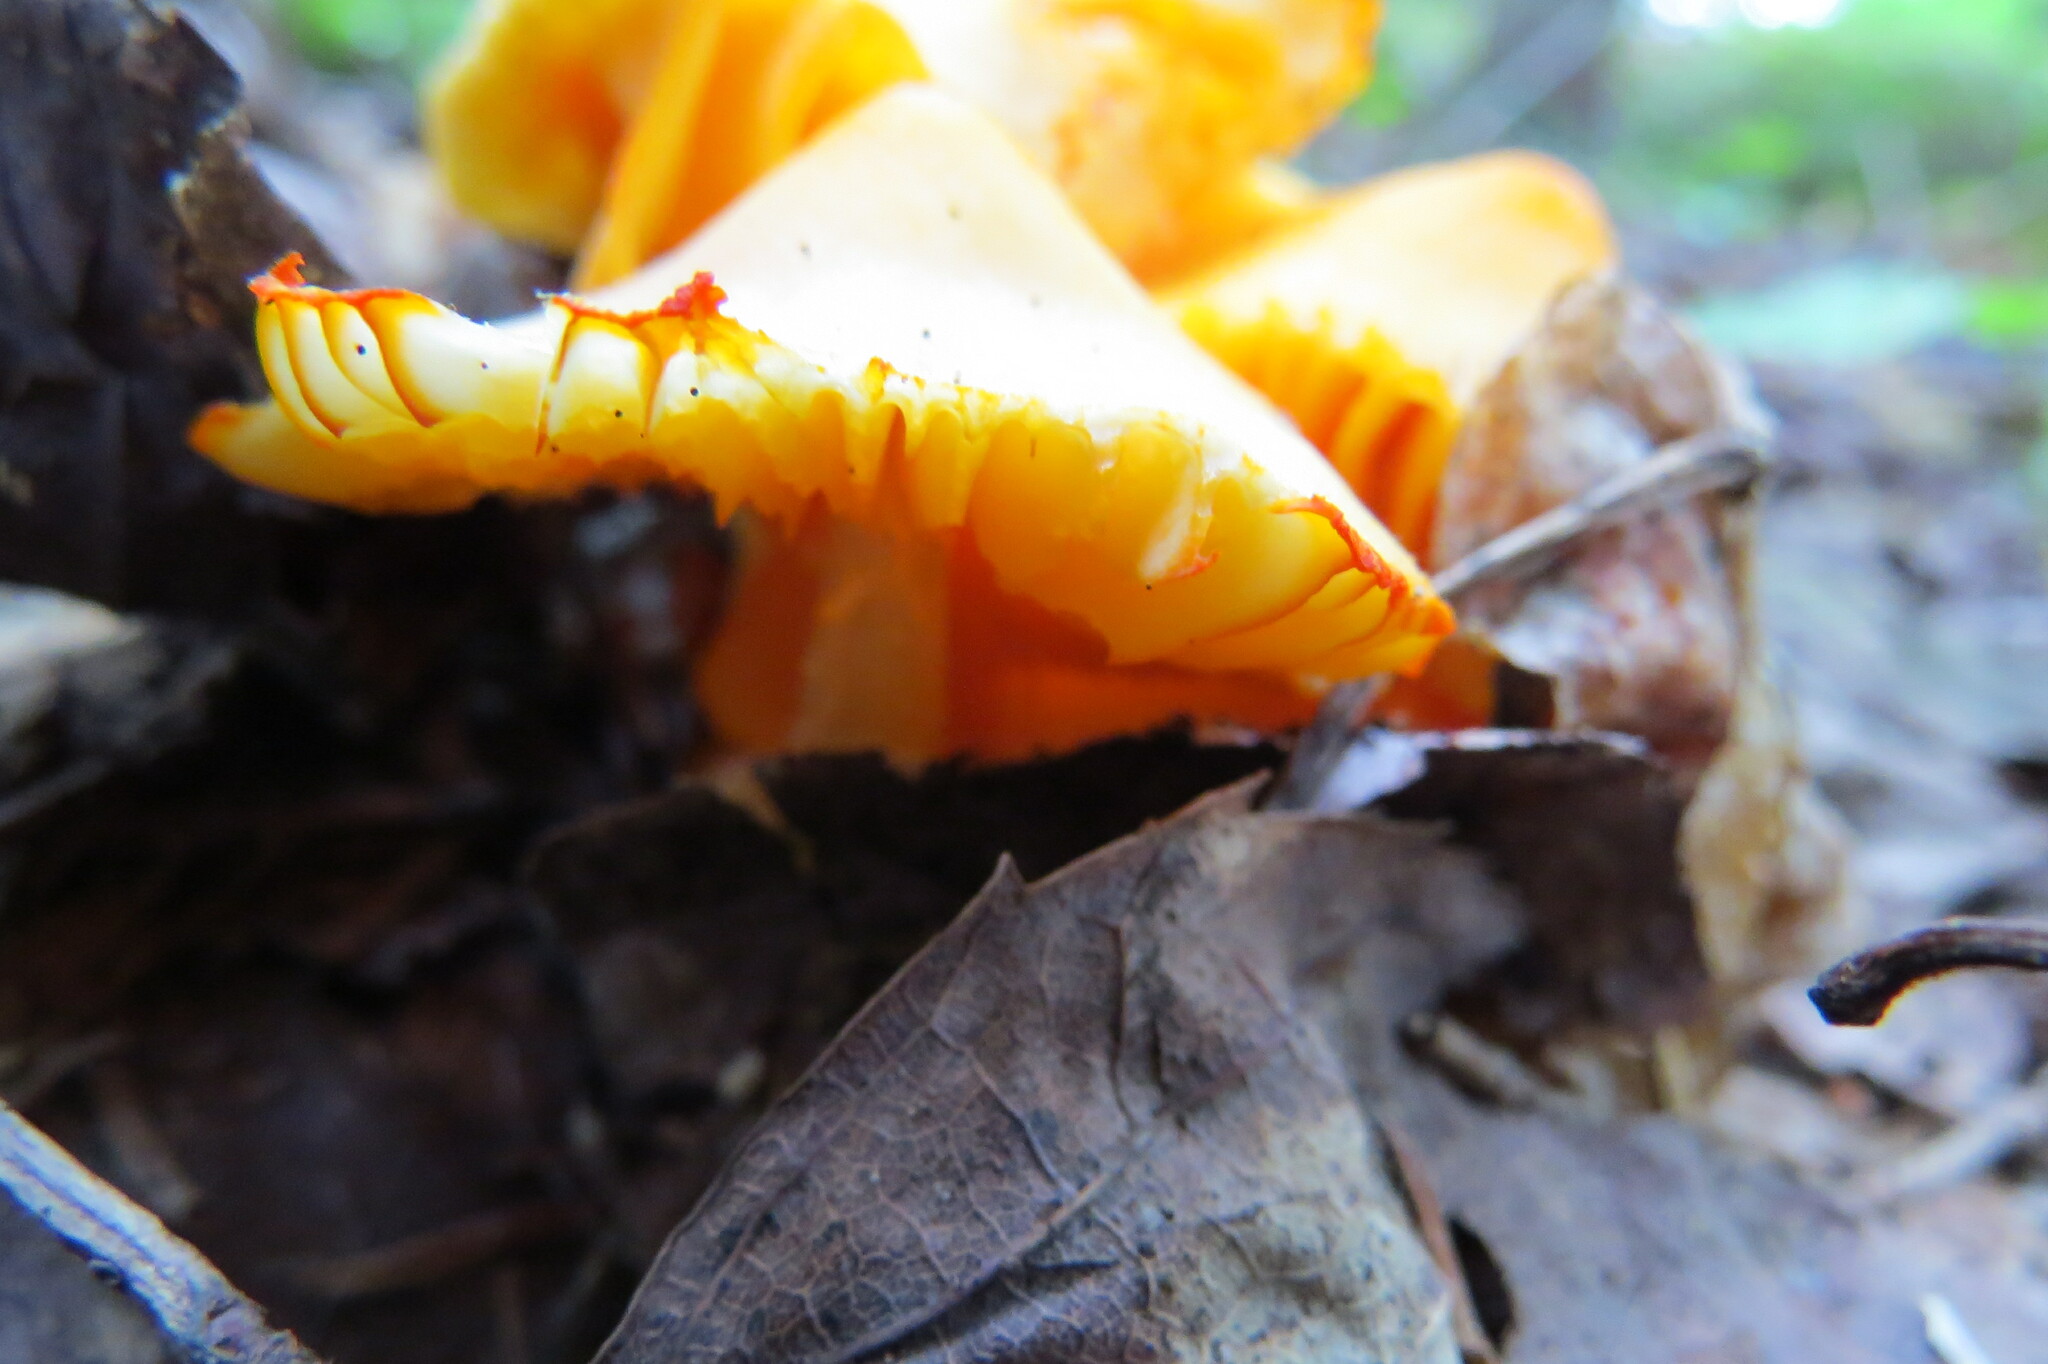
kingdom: Fungi
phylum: Basidiomycota
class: Agaricomycetes
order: Agaricales
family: Hygrophoraceae
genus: Humidicutis
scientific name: Humidicutis marginata
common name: Orange gilled waxcap
